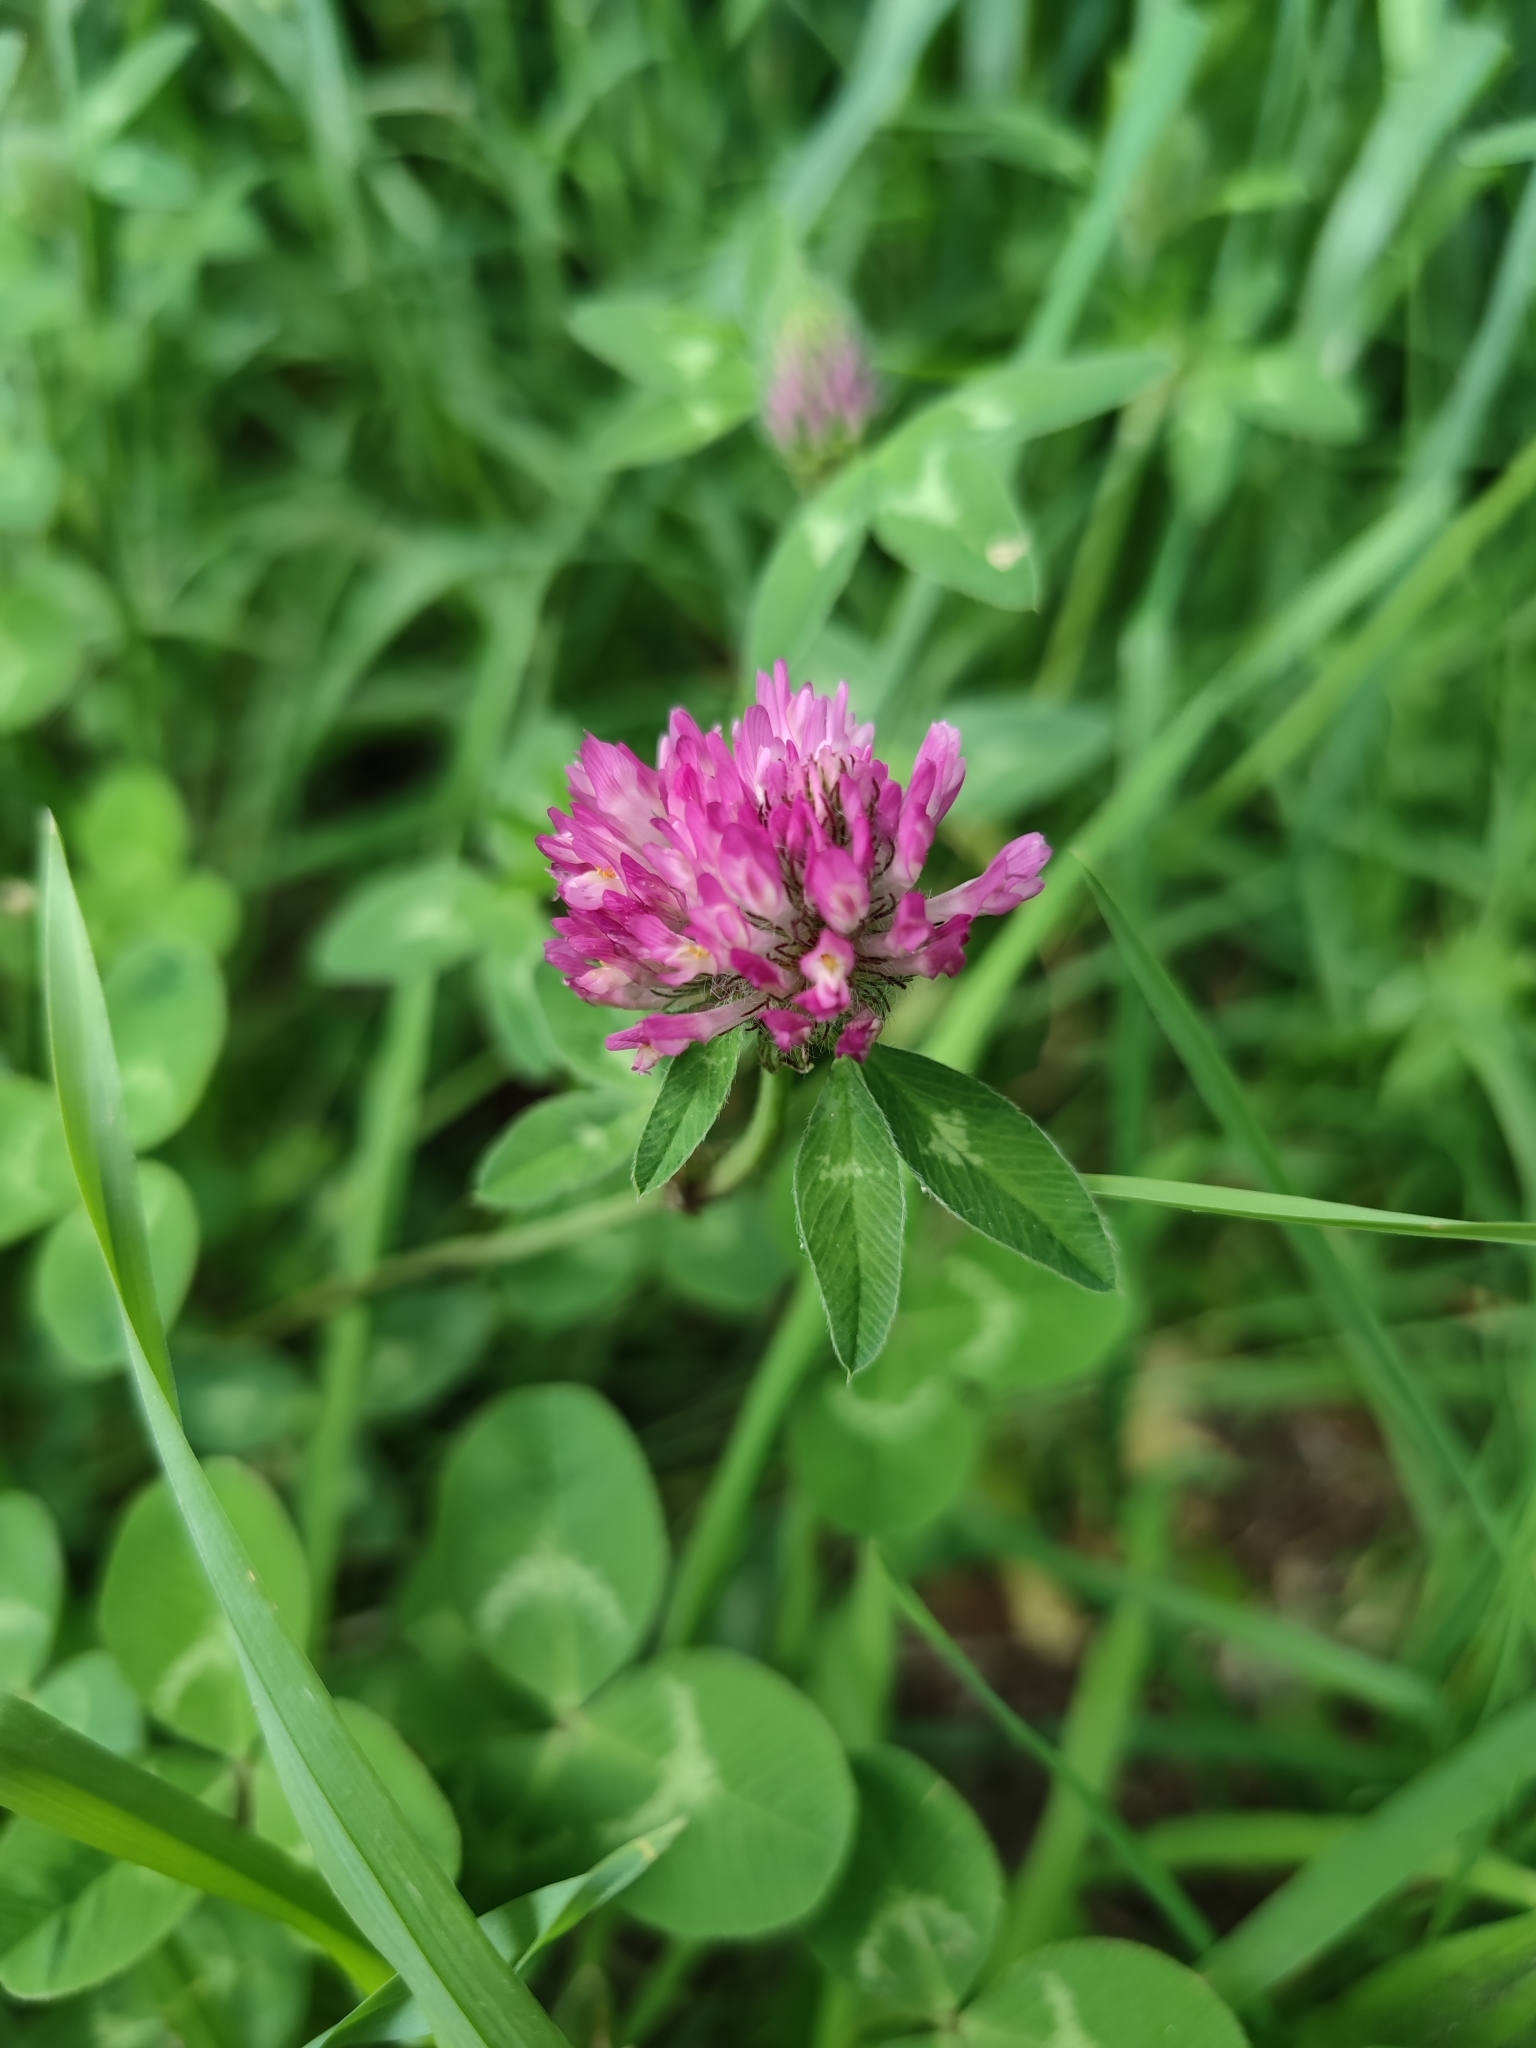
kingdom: Plantae
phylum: Tracheophyta
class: Magnoliopsida
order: Fabales
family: Fabaceae
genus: Trifolium
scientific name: Trifolium pratense
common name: Red clover
